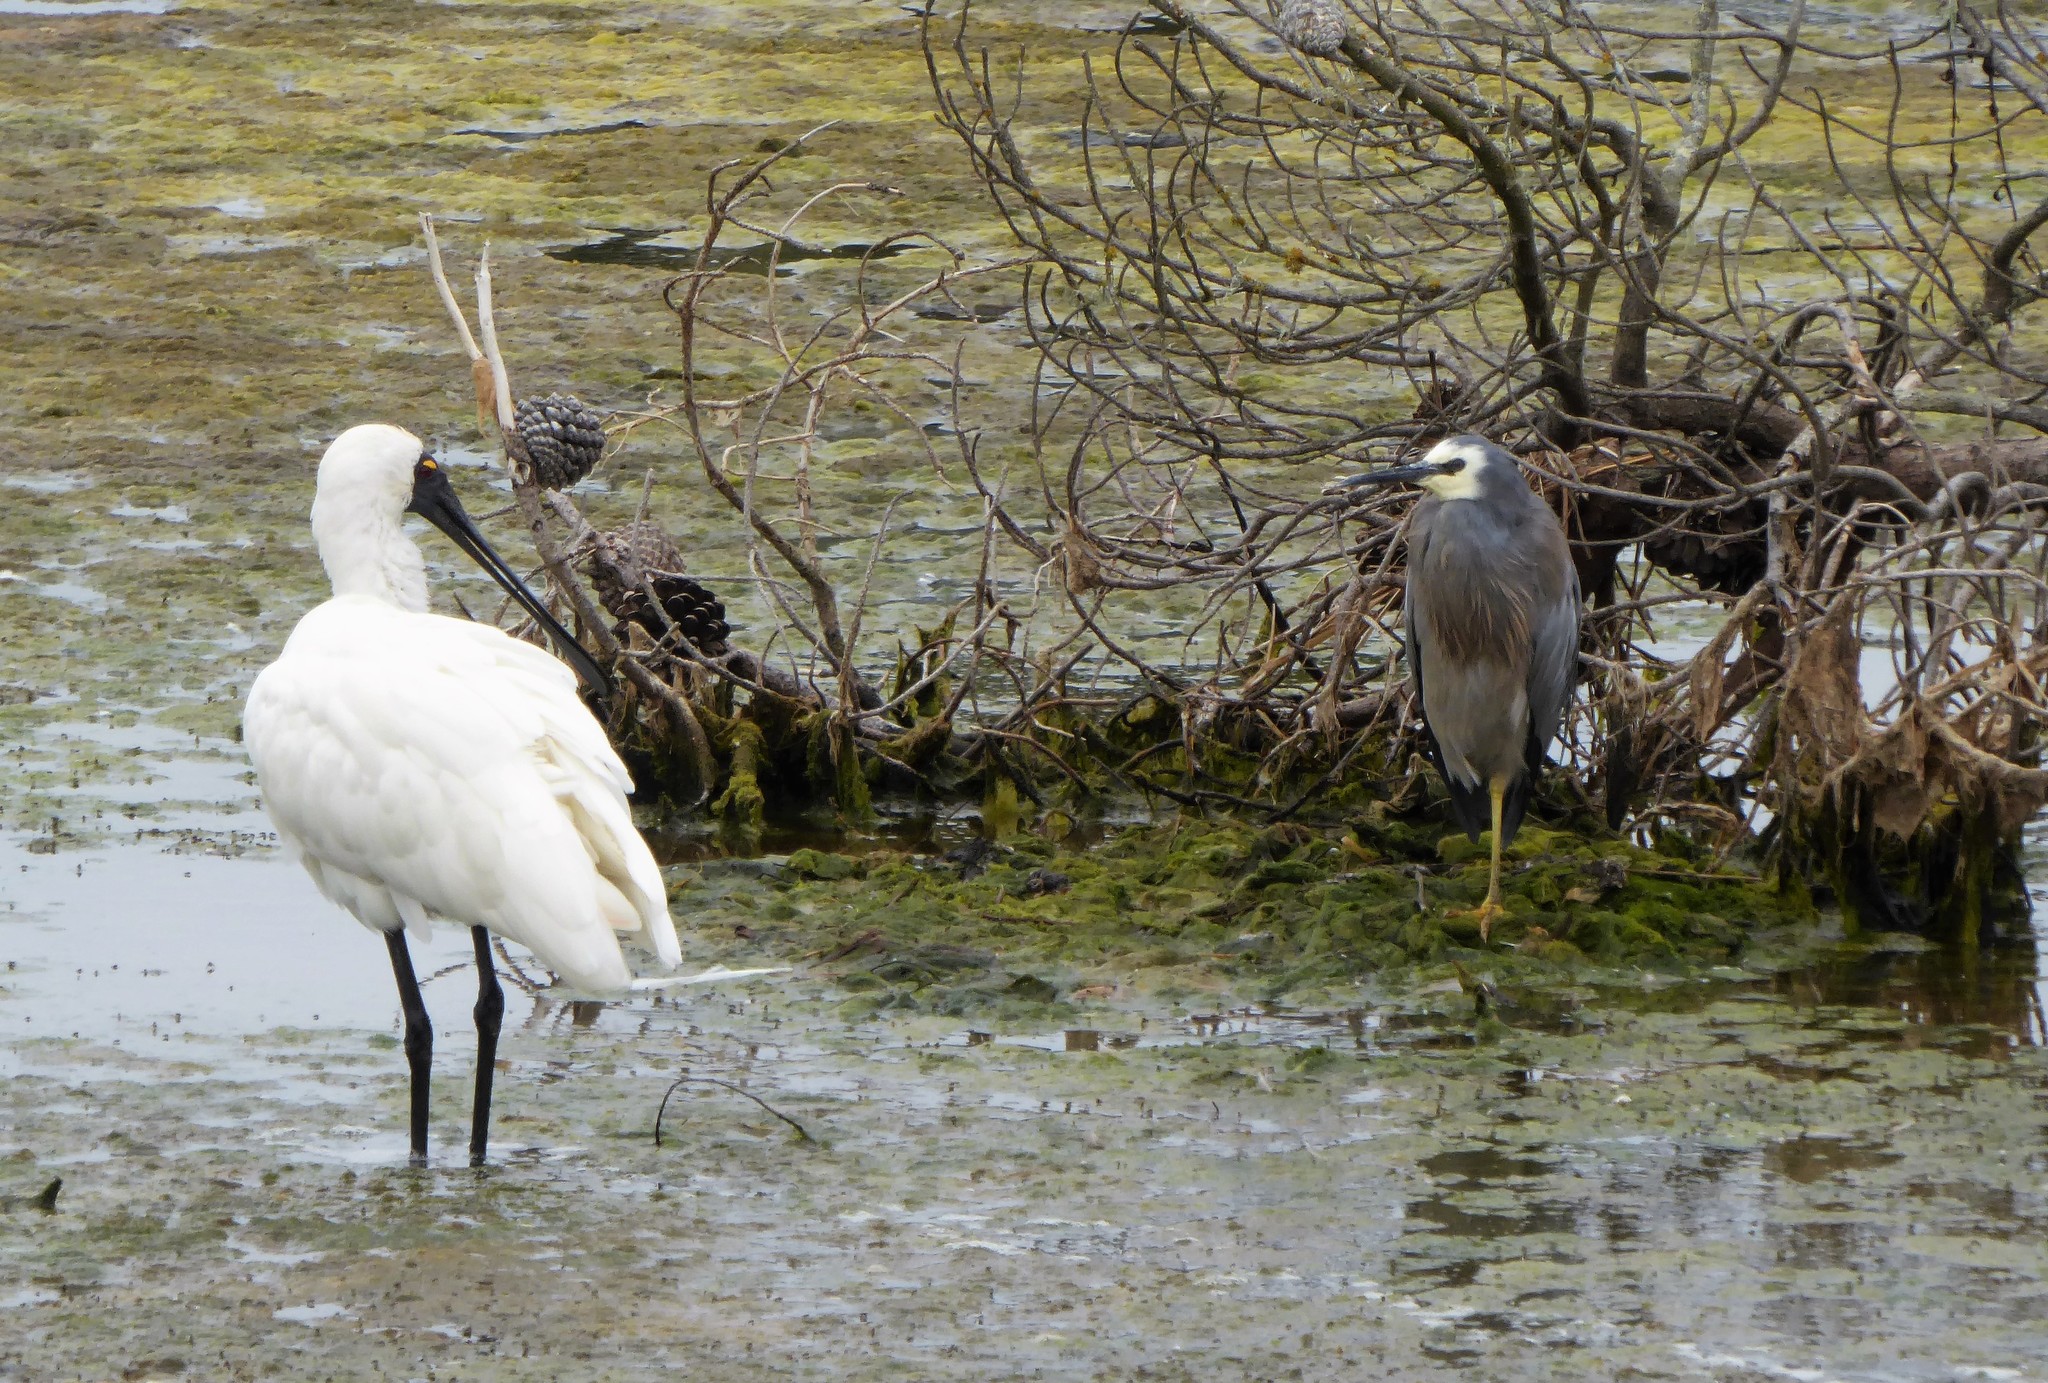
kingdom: Animalia
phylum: Chordata
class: Aves
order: Pelecaniformes
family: Threskiornithidae
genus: Platalea
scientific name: Platalea regia
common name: Royal spoonbill
